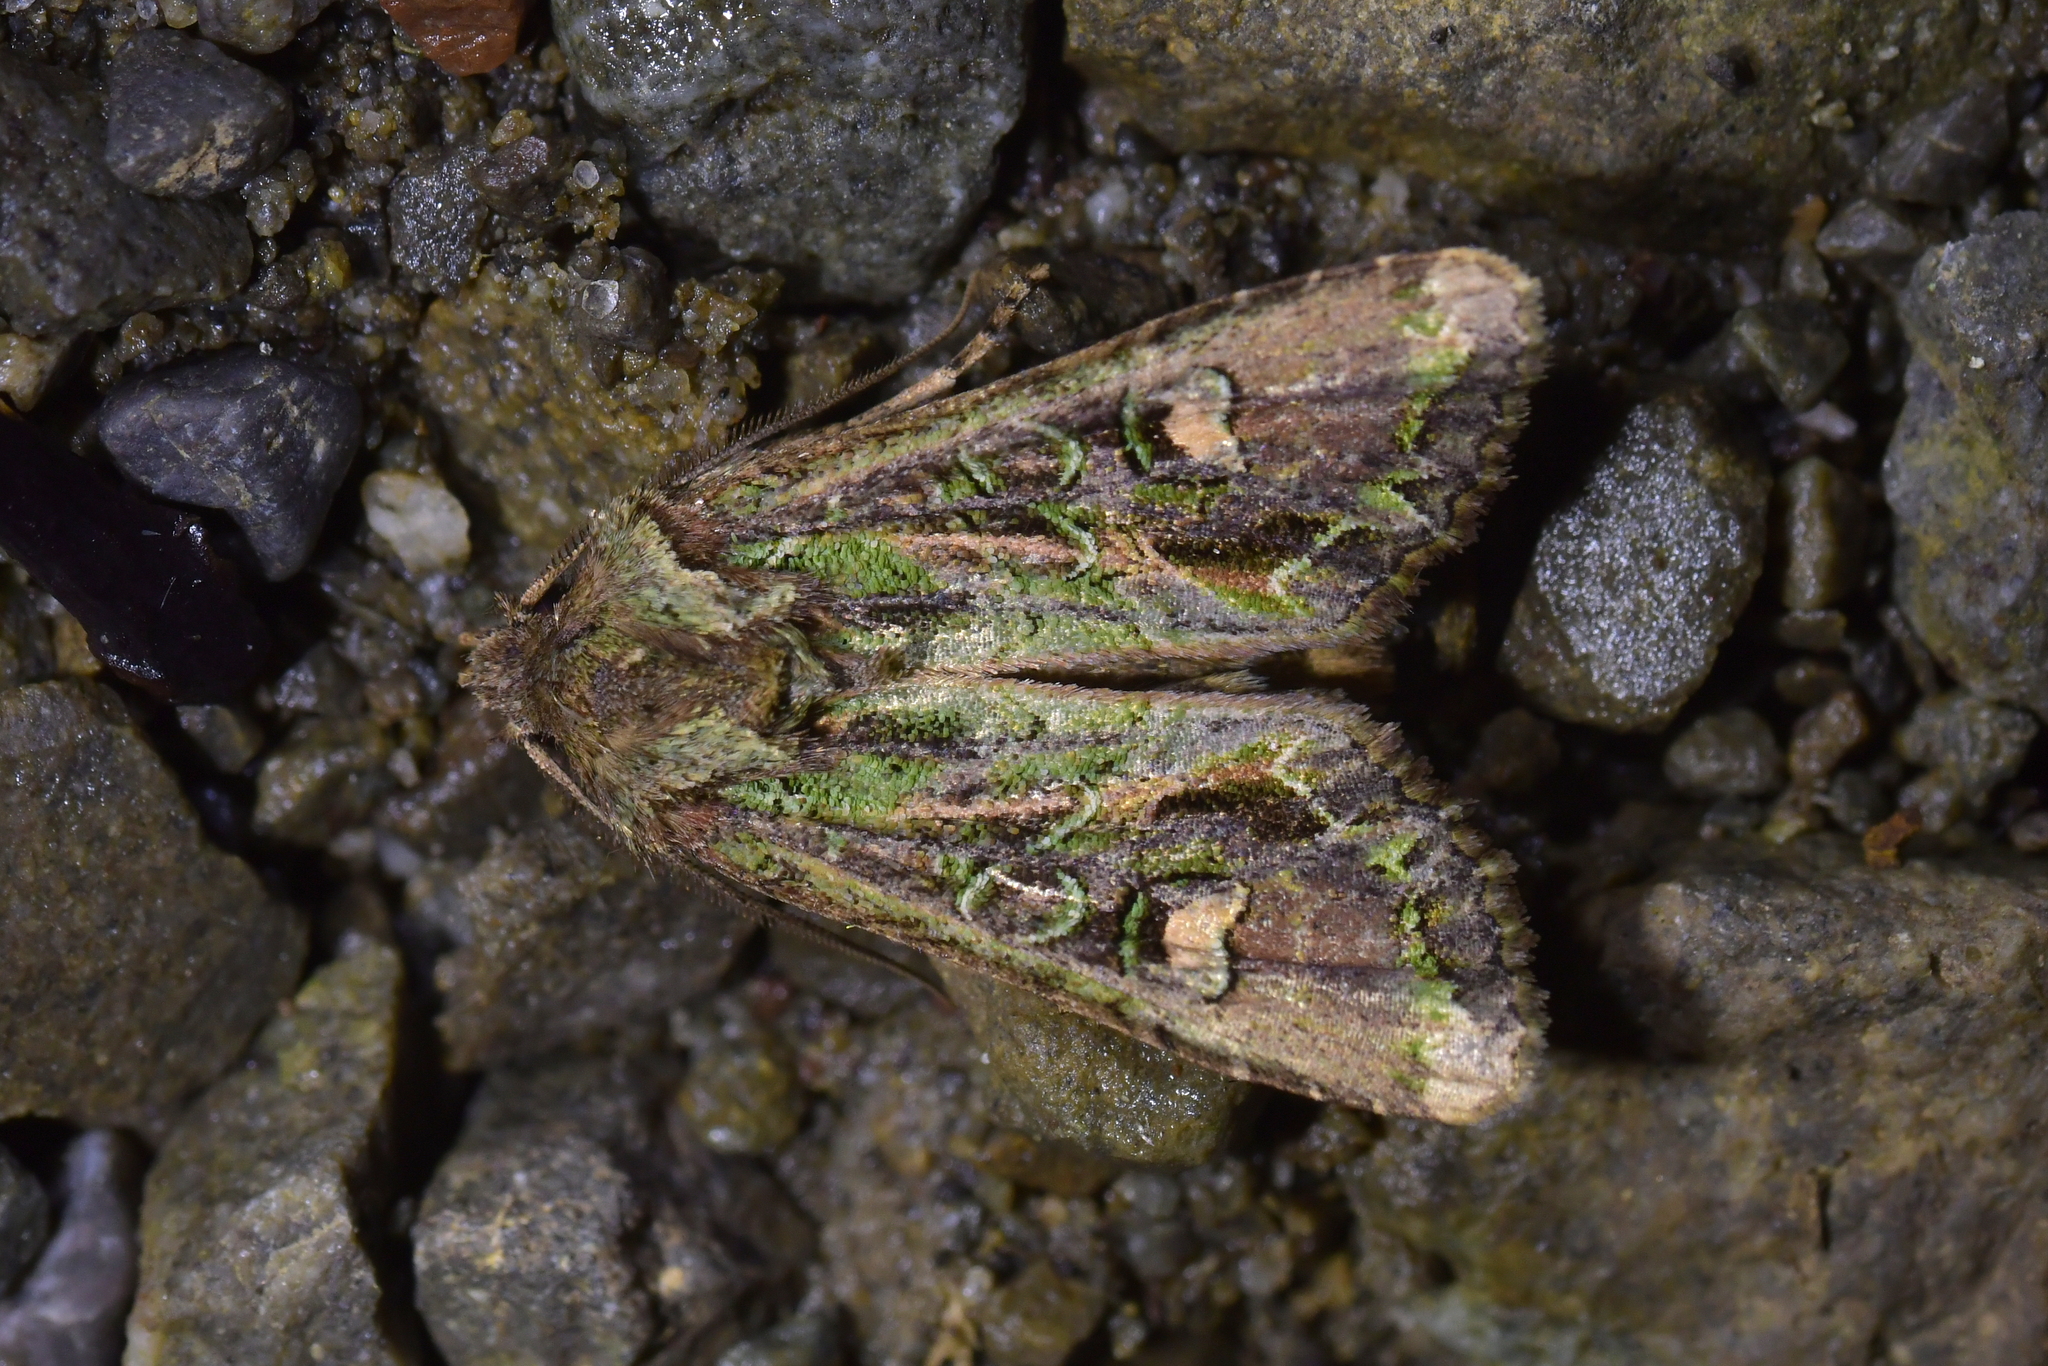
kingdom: Animalia
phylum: Arthropoda
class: Insecta
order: Lepidoptera
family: Noctuidae
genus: Ichneutica
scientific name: Ichneutica insignis
